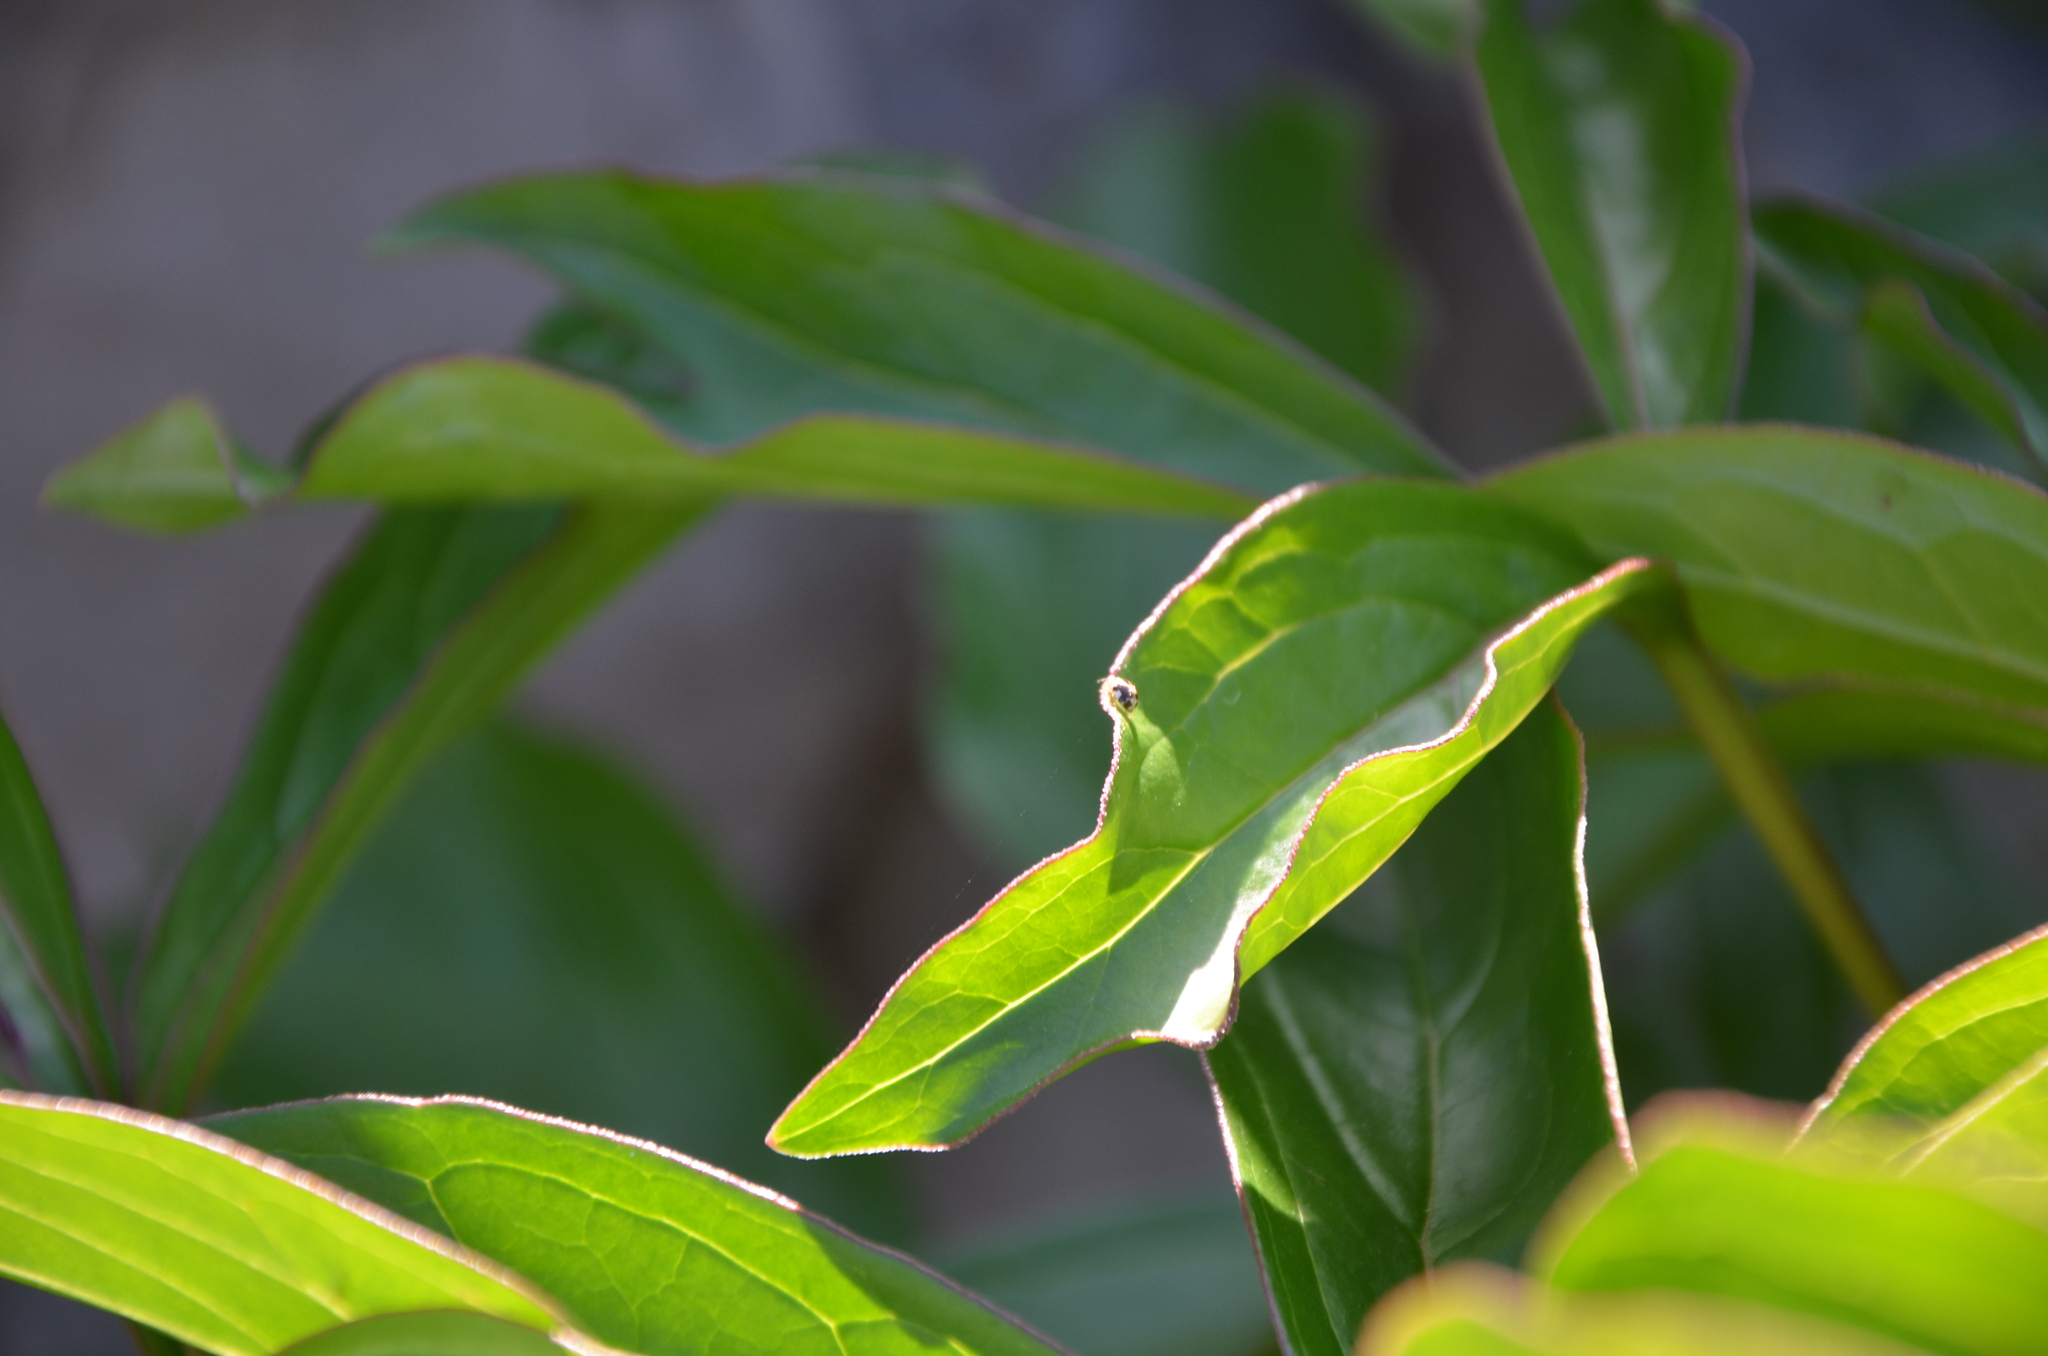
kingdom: Animalia
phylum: Arthropoda
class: Insecta
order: Coleoptera
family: Coccinellidae
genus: Psyllobora
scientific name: Psyllobora vigintimaculata
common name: Ladybird beetle
